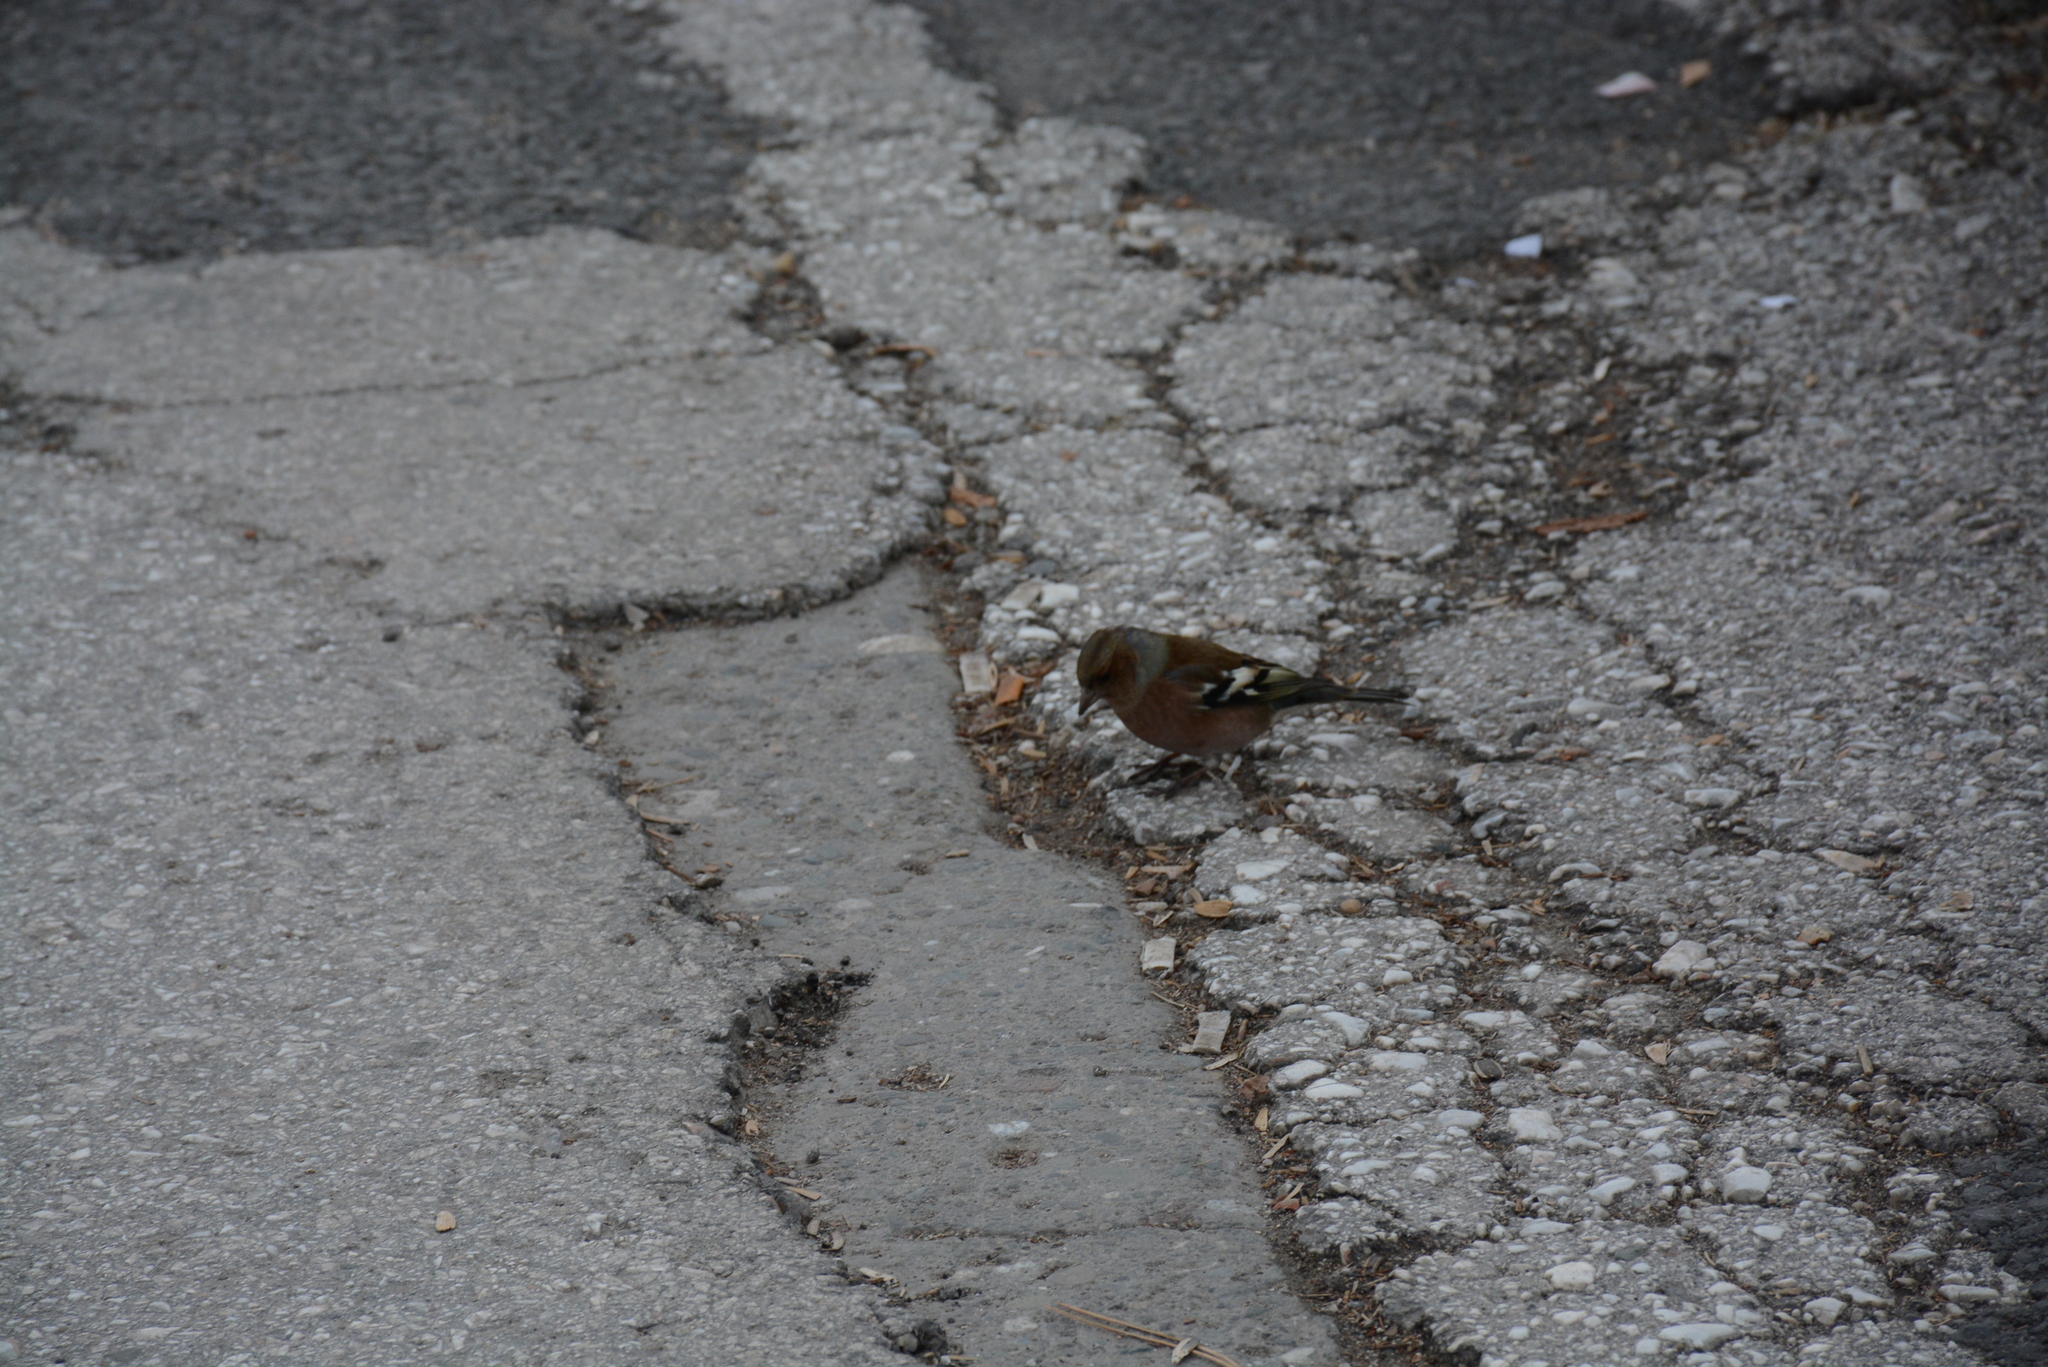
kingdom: Animalia
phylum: Chordata
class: Aves
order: Passeriformes
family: Fringillidae
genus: Fringilla
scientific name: Fringilla coelebs
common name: Common chaffinch
